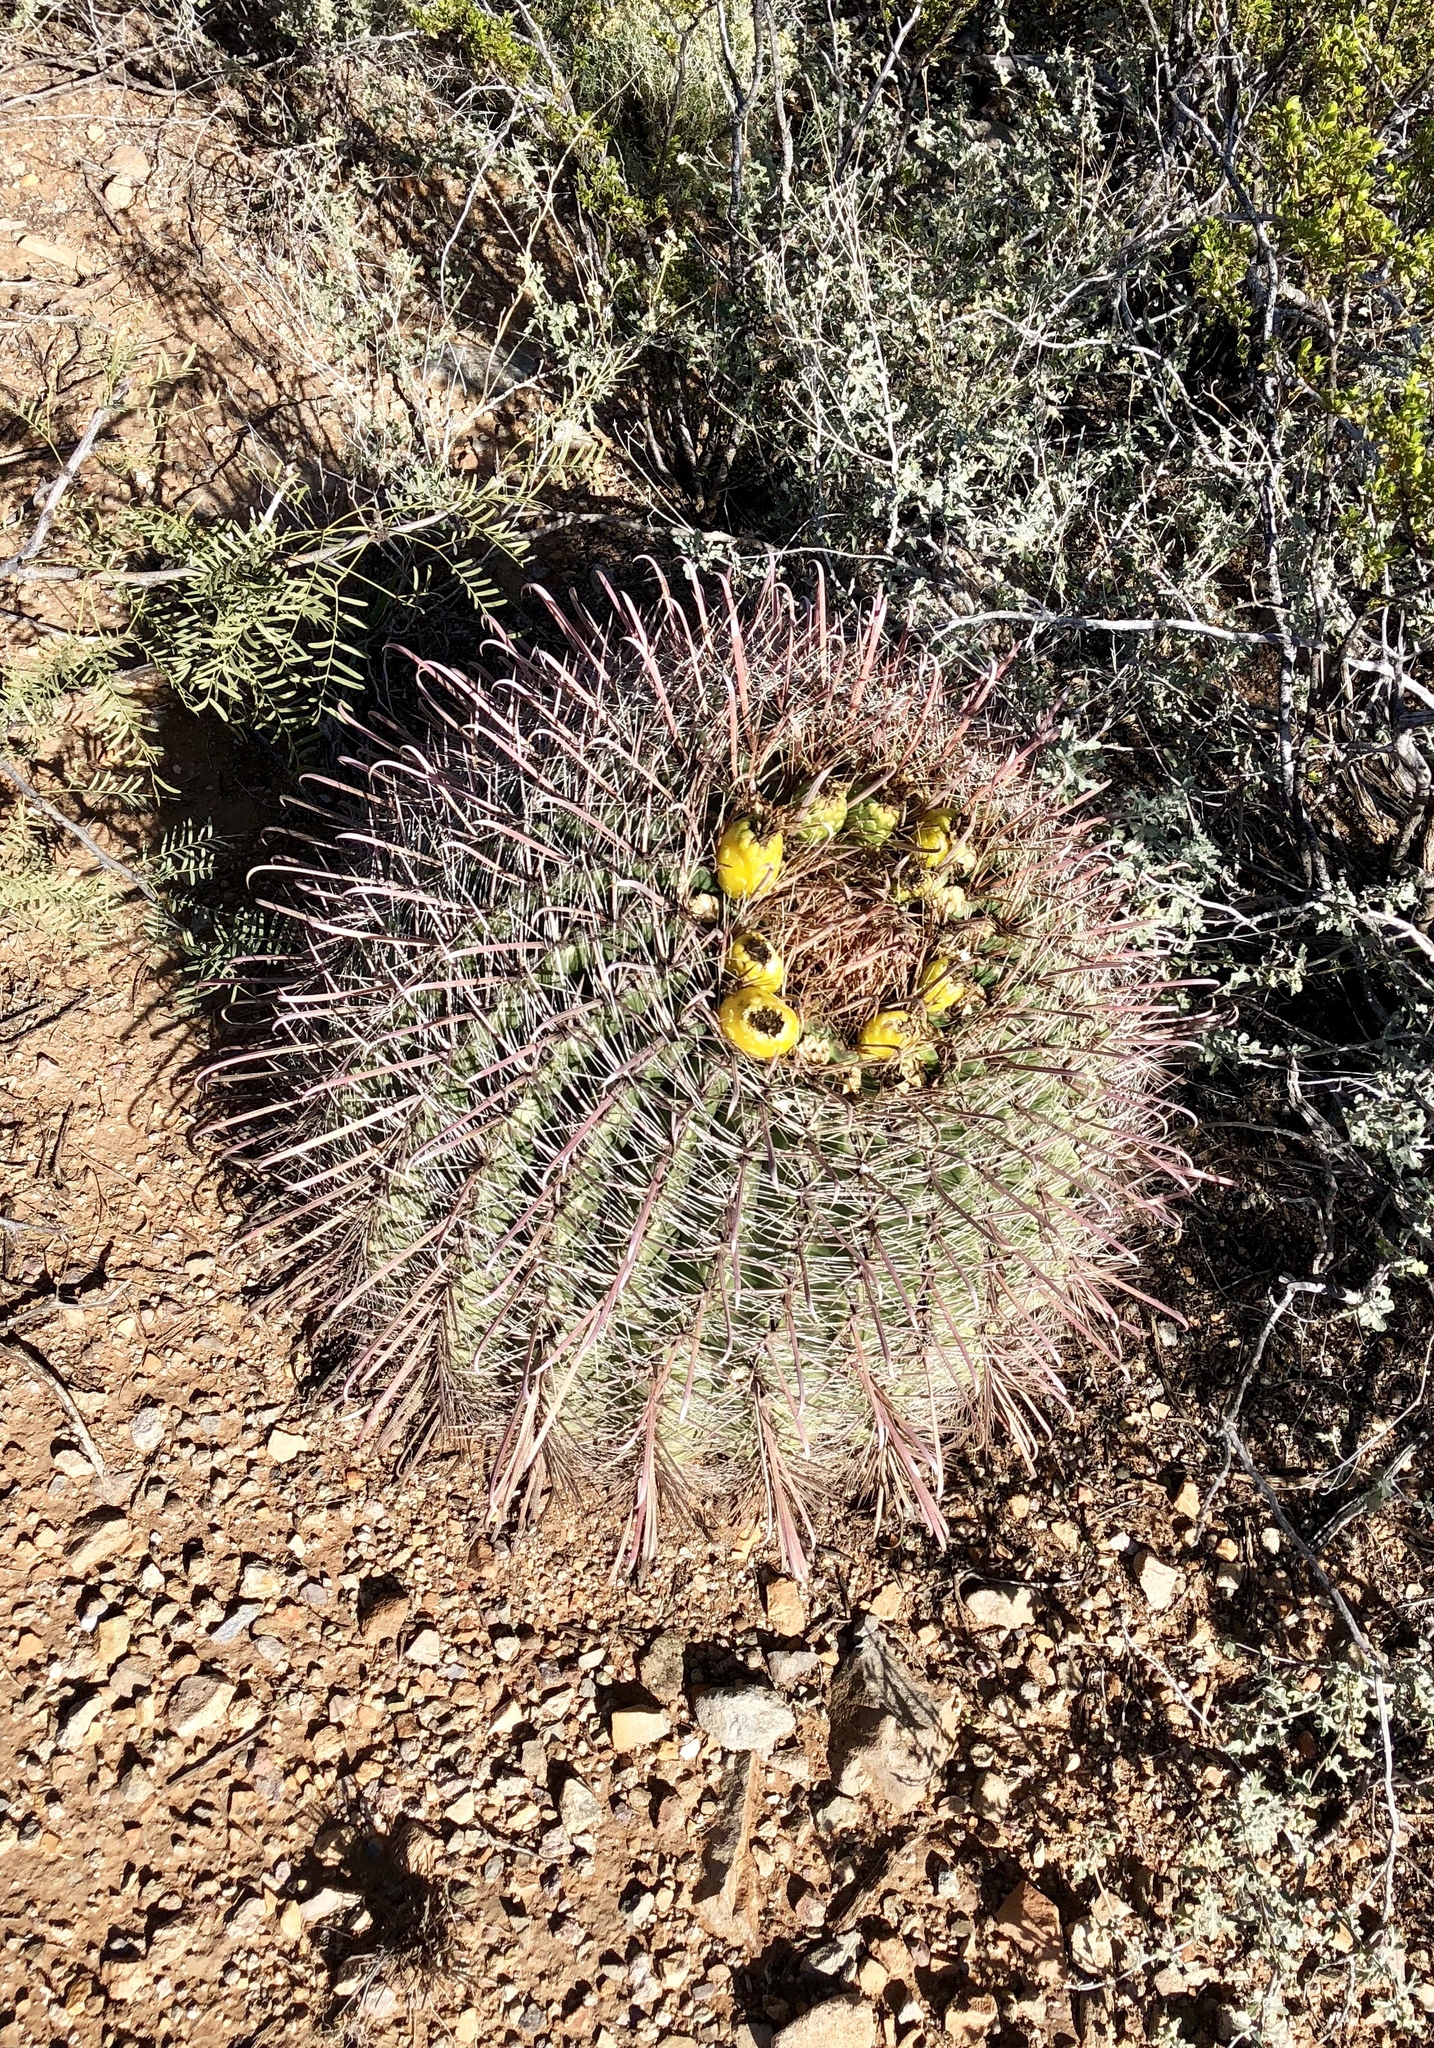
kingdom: Plantae
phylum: Tracheophyta
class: Magnoliopsida
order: Caryophyllales
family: Cactaceae
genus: Ferocactus
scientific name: Ferocactus wislizeni
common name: Candy barrel cactus
